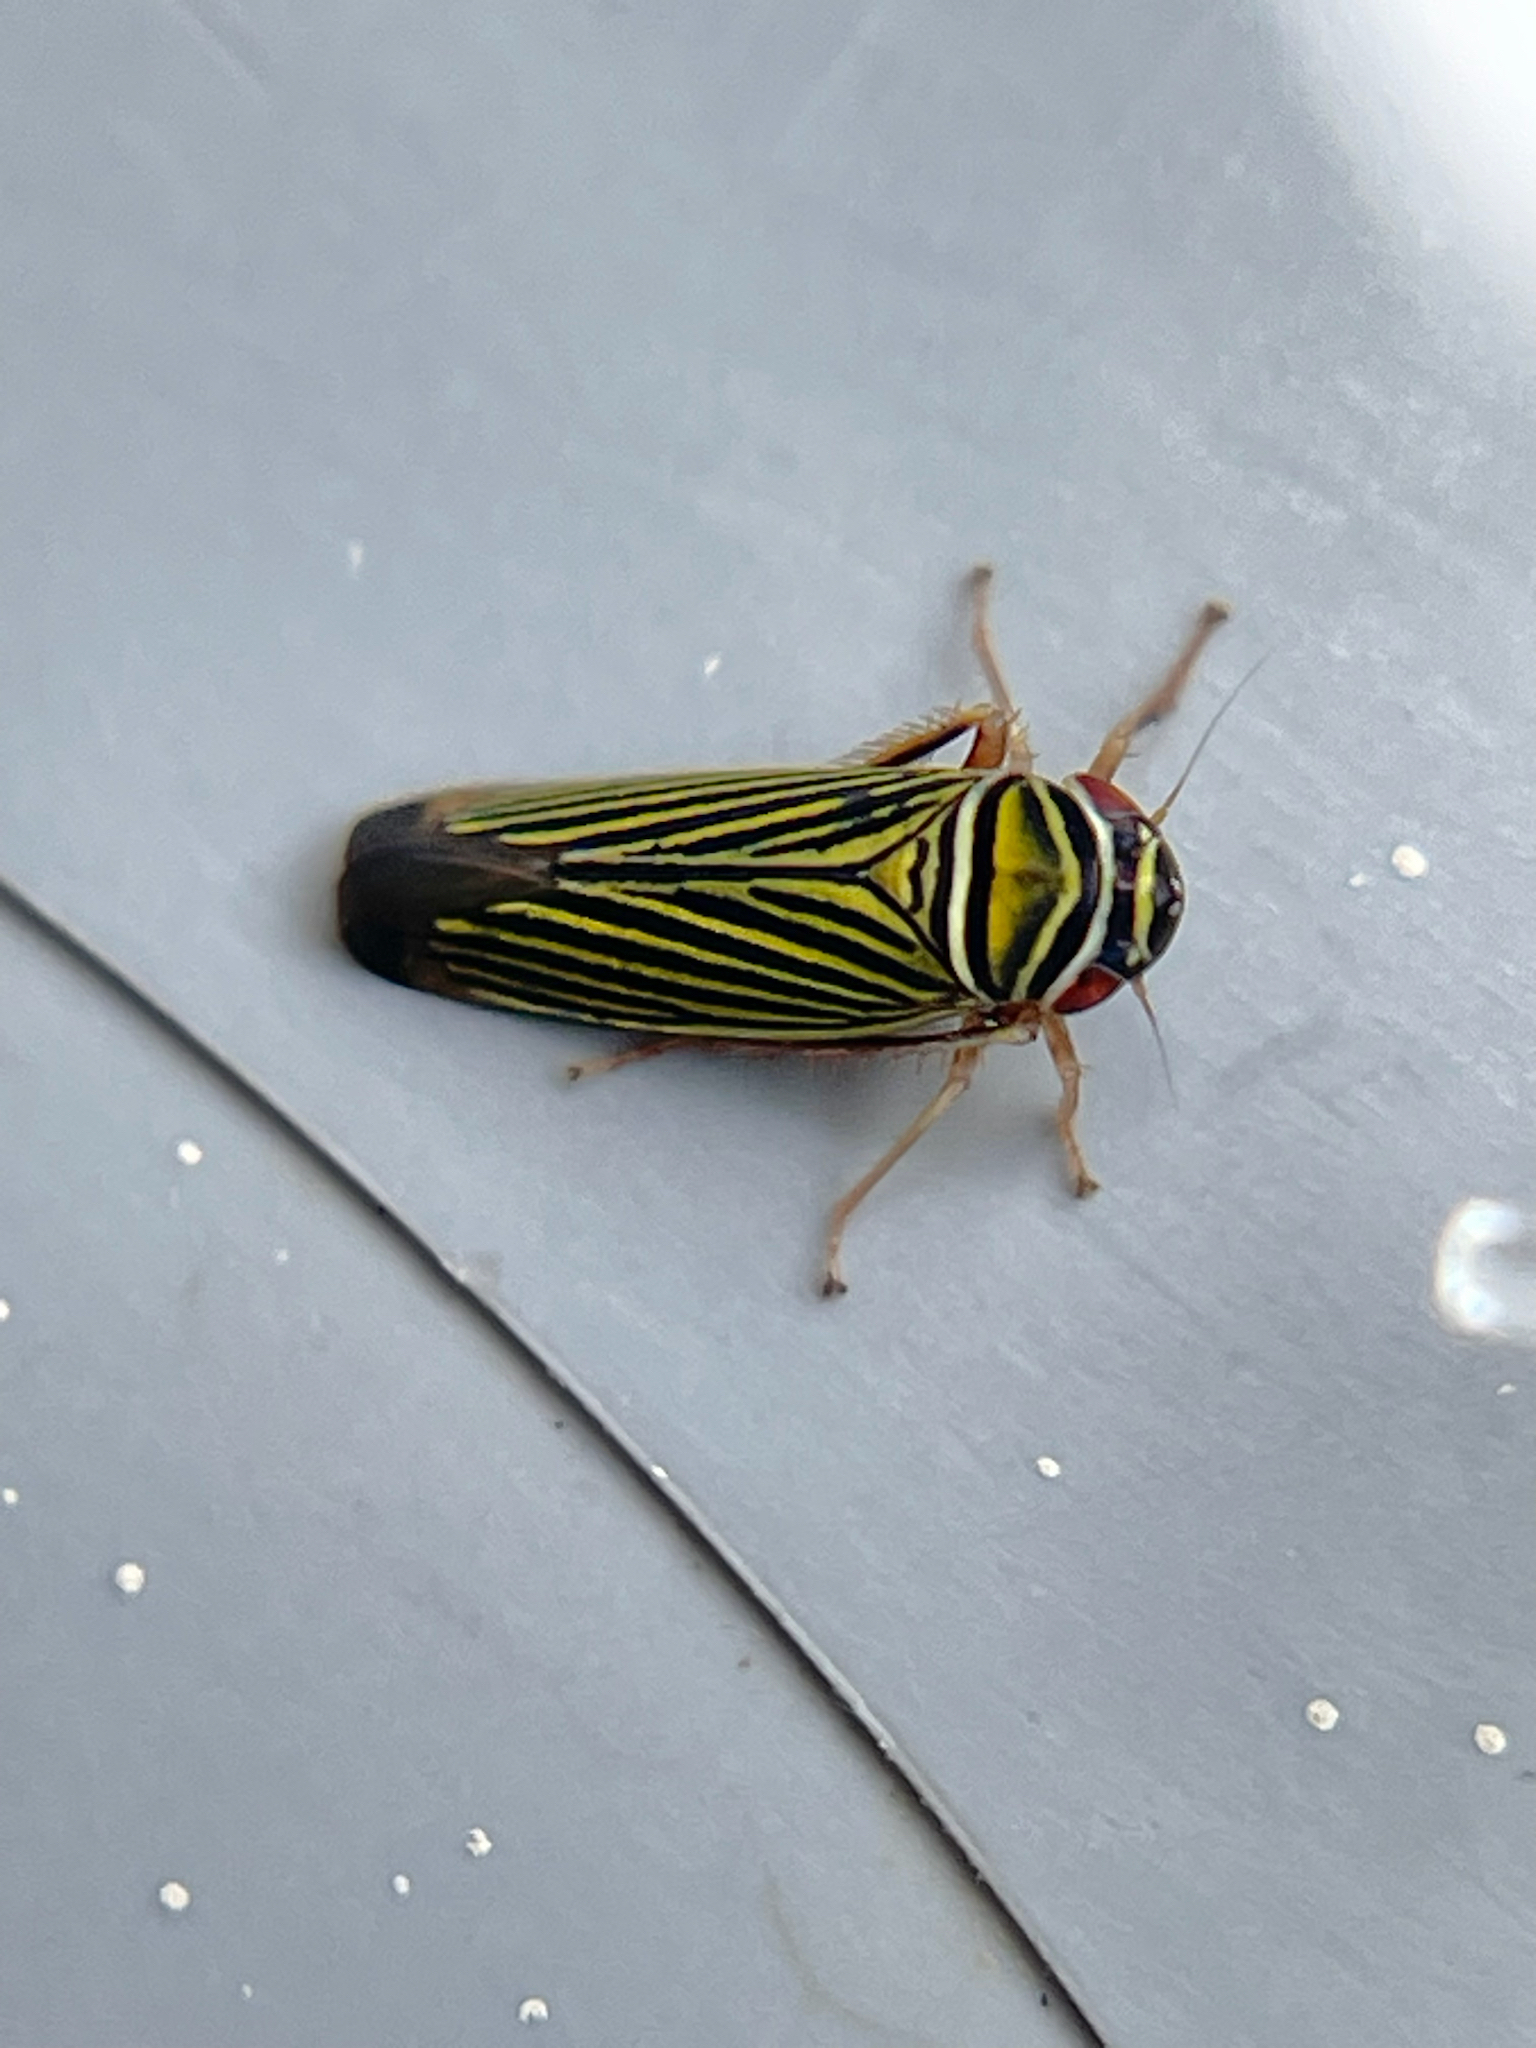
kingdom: Animalia
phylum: Arthropoda
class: Insecta
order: Hemiptera
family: Cicadellidae
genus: Tylozygus
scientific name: Tylozygus bifidus
